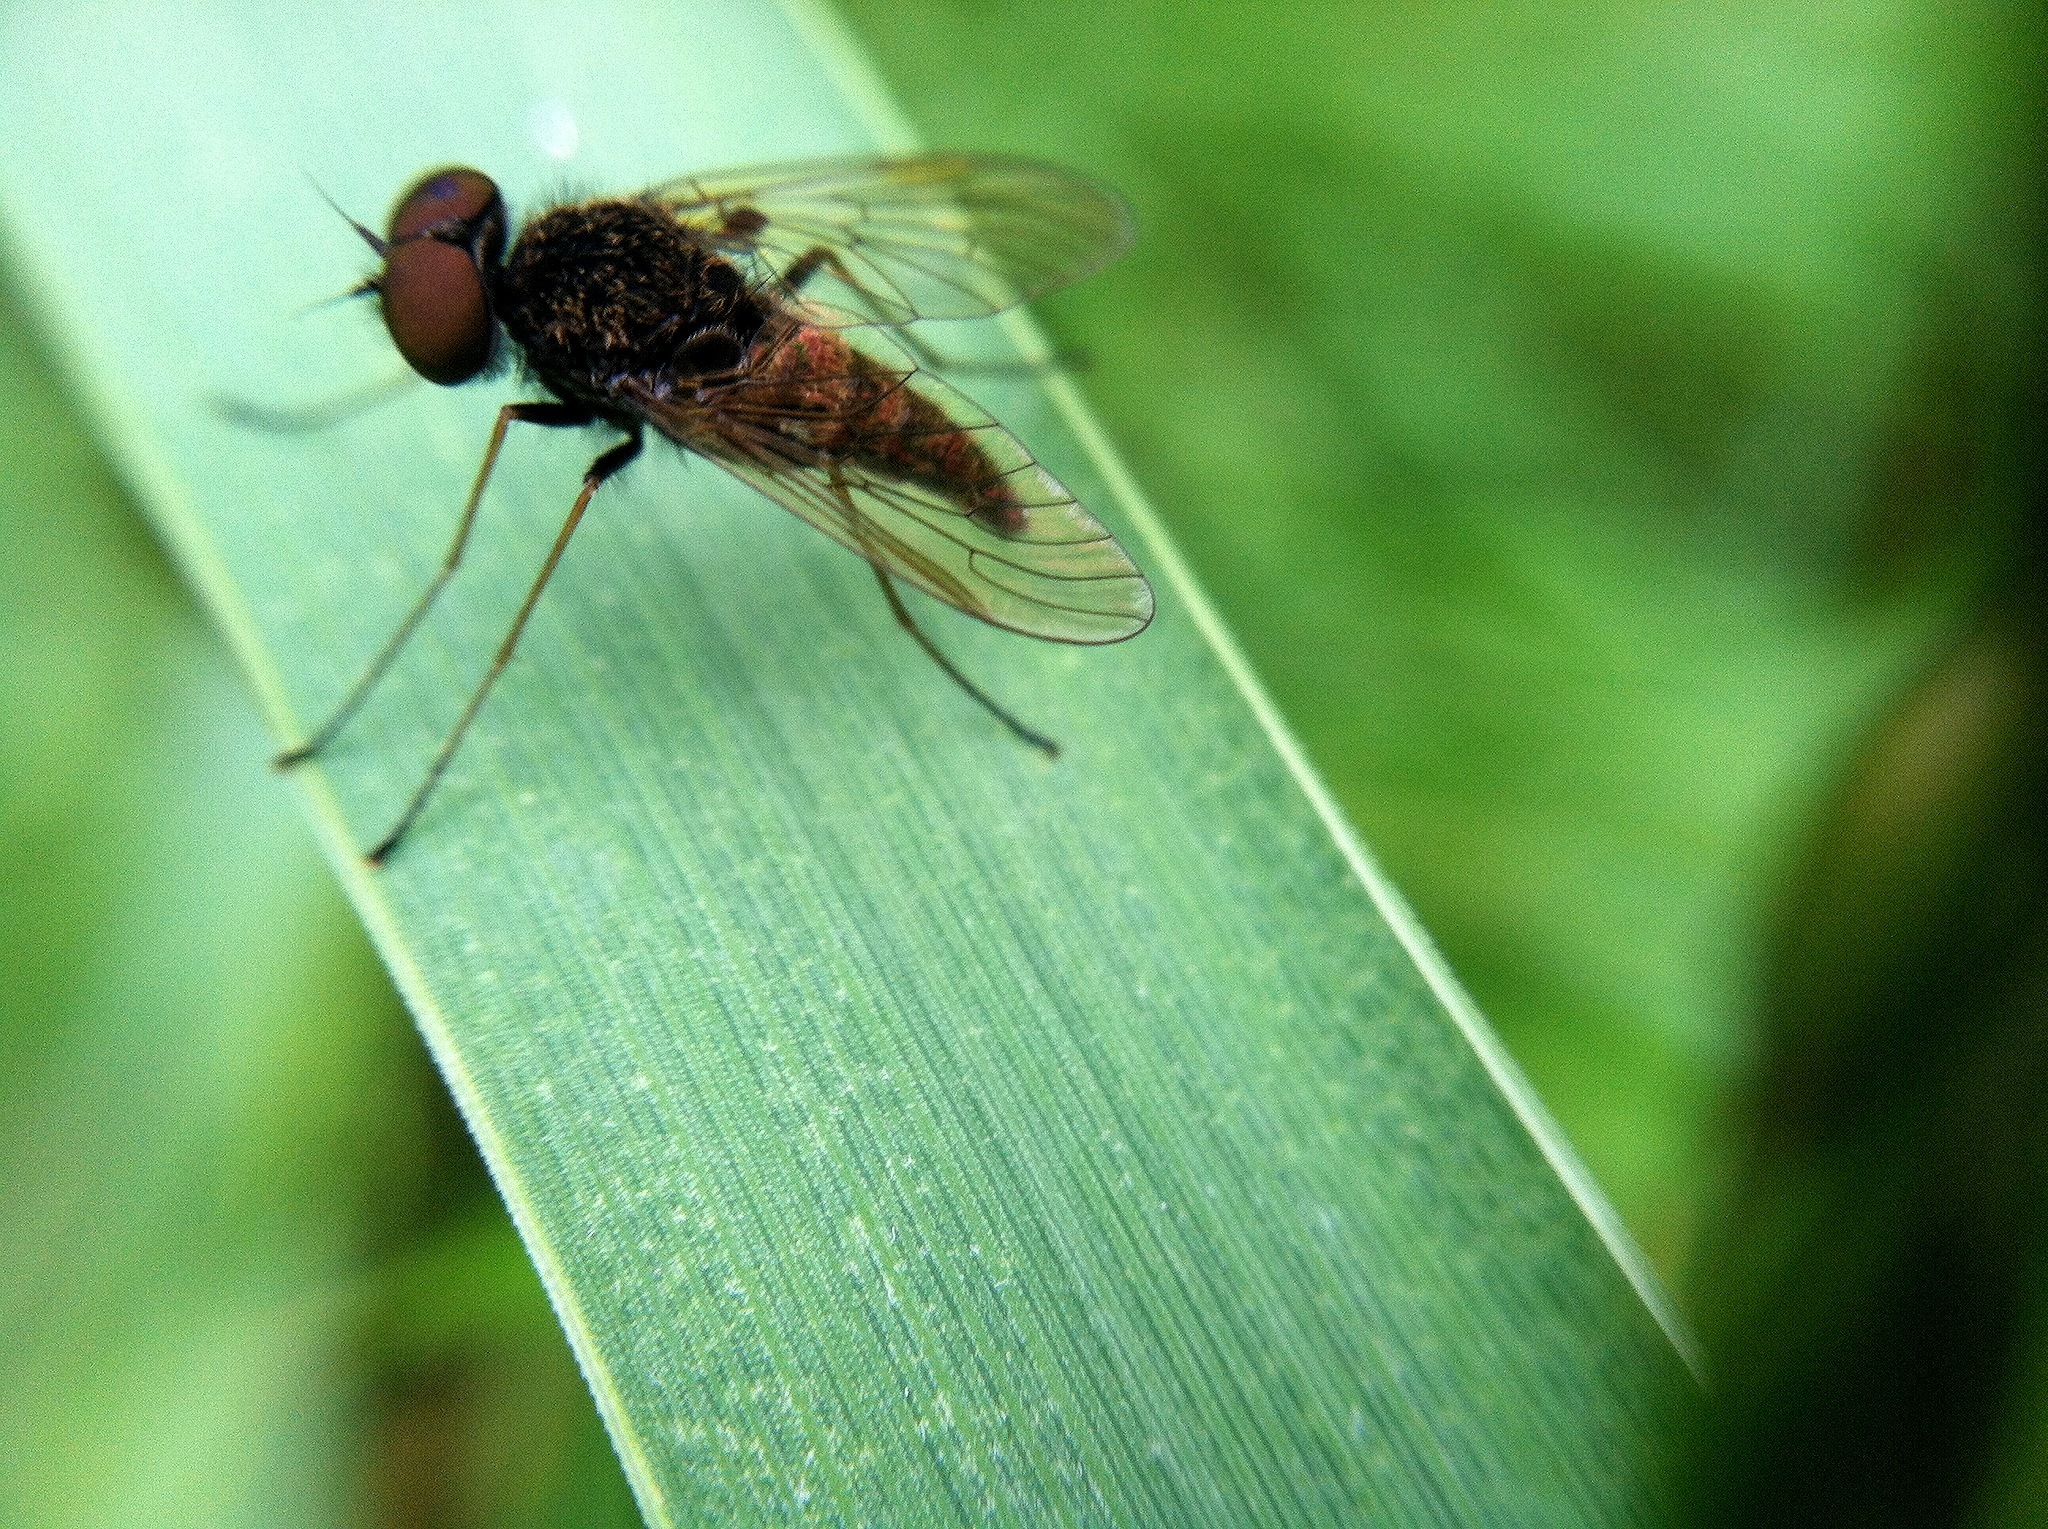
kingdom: Animalia
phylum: Arthropoda
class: Insecta
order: Diptera
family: Rhagionidae
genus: Chrysopilus
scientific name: Chrysopilus proximus
